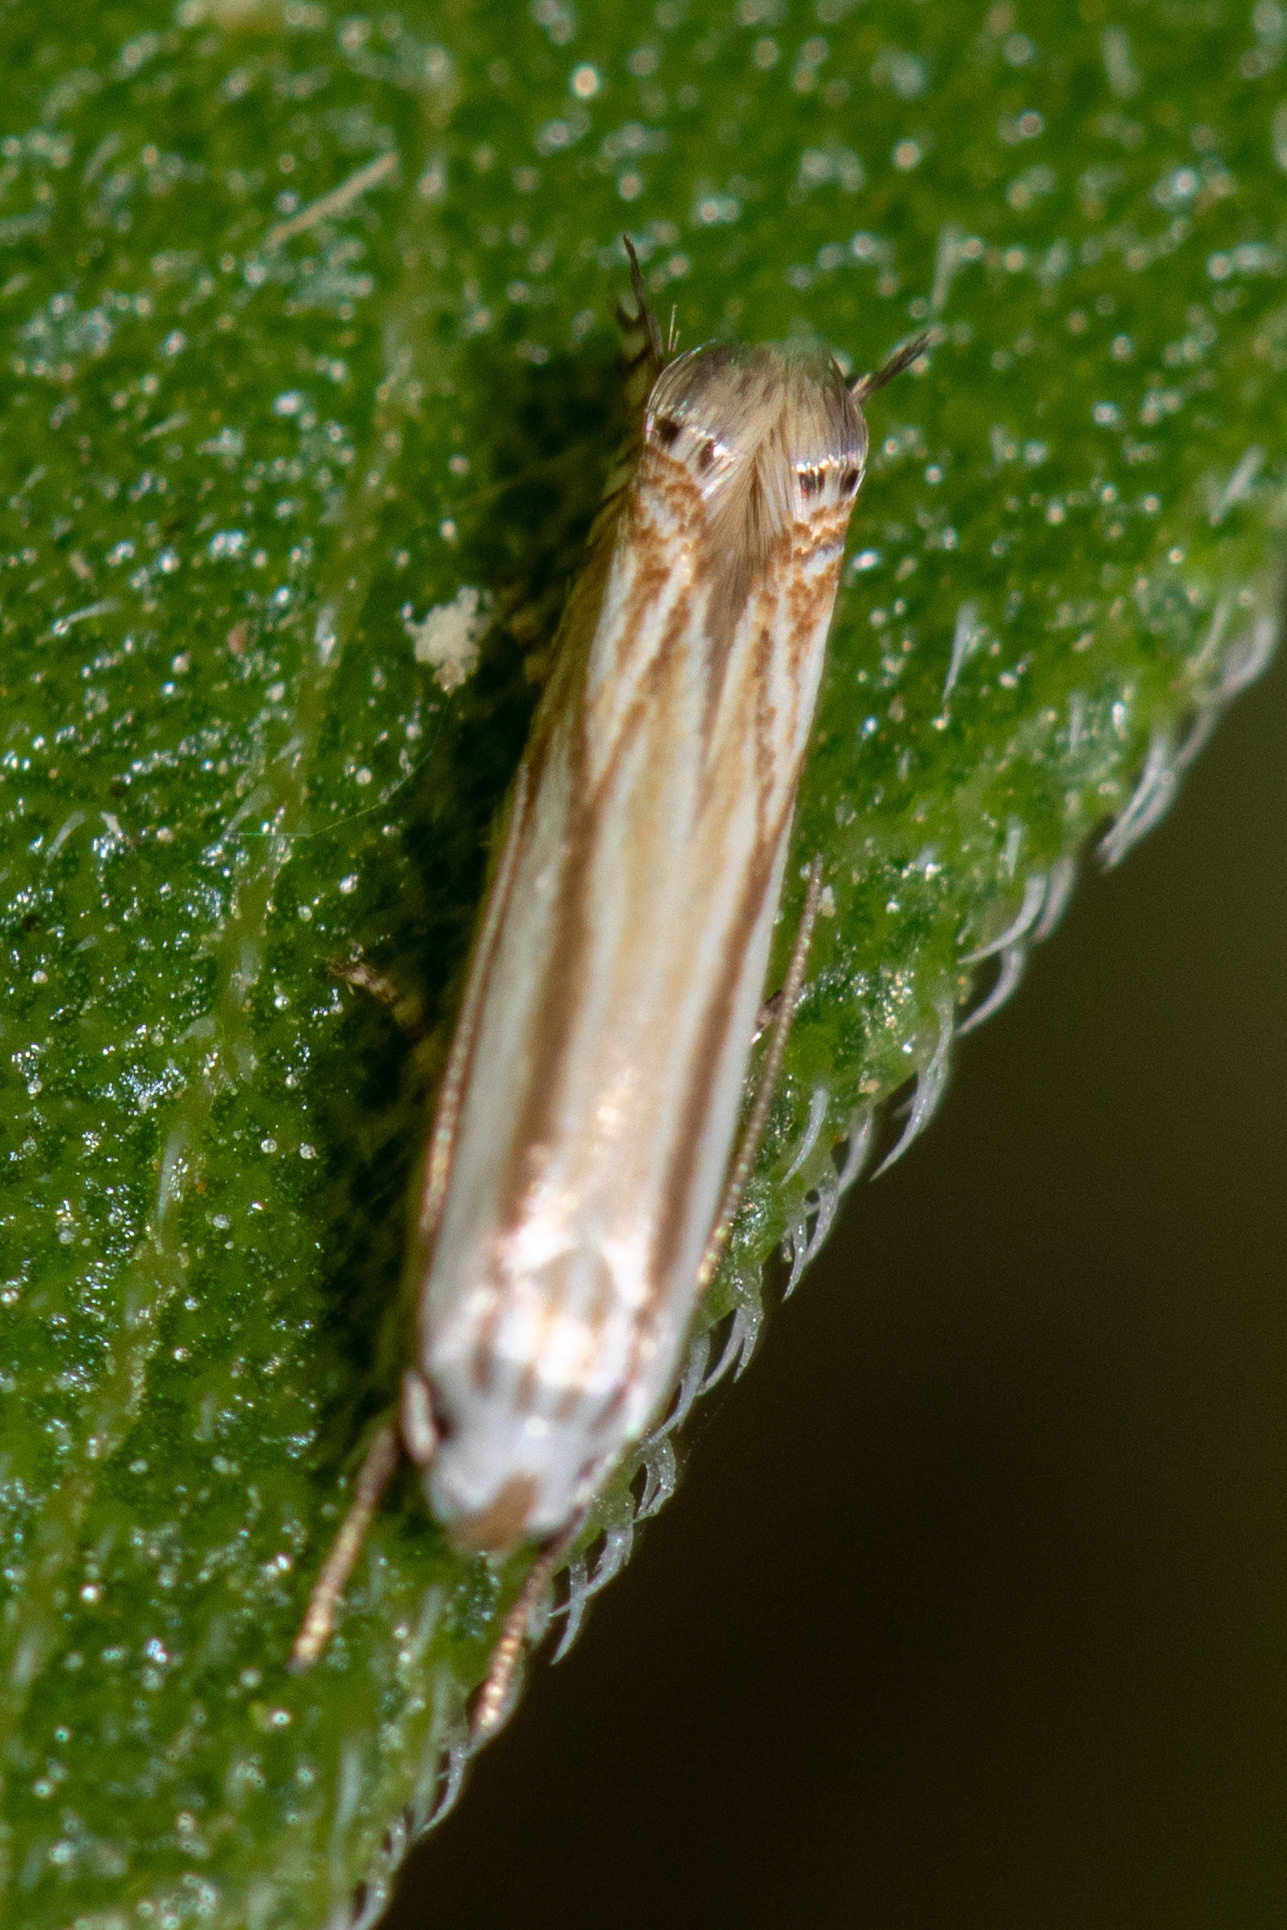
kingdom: Animalia
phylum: Arthropoda
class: Insecta
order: Lepidoptera
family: Gelechiidae
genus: Polyhymno
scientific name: Polyhymno luteostrigella
